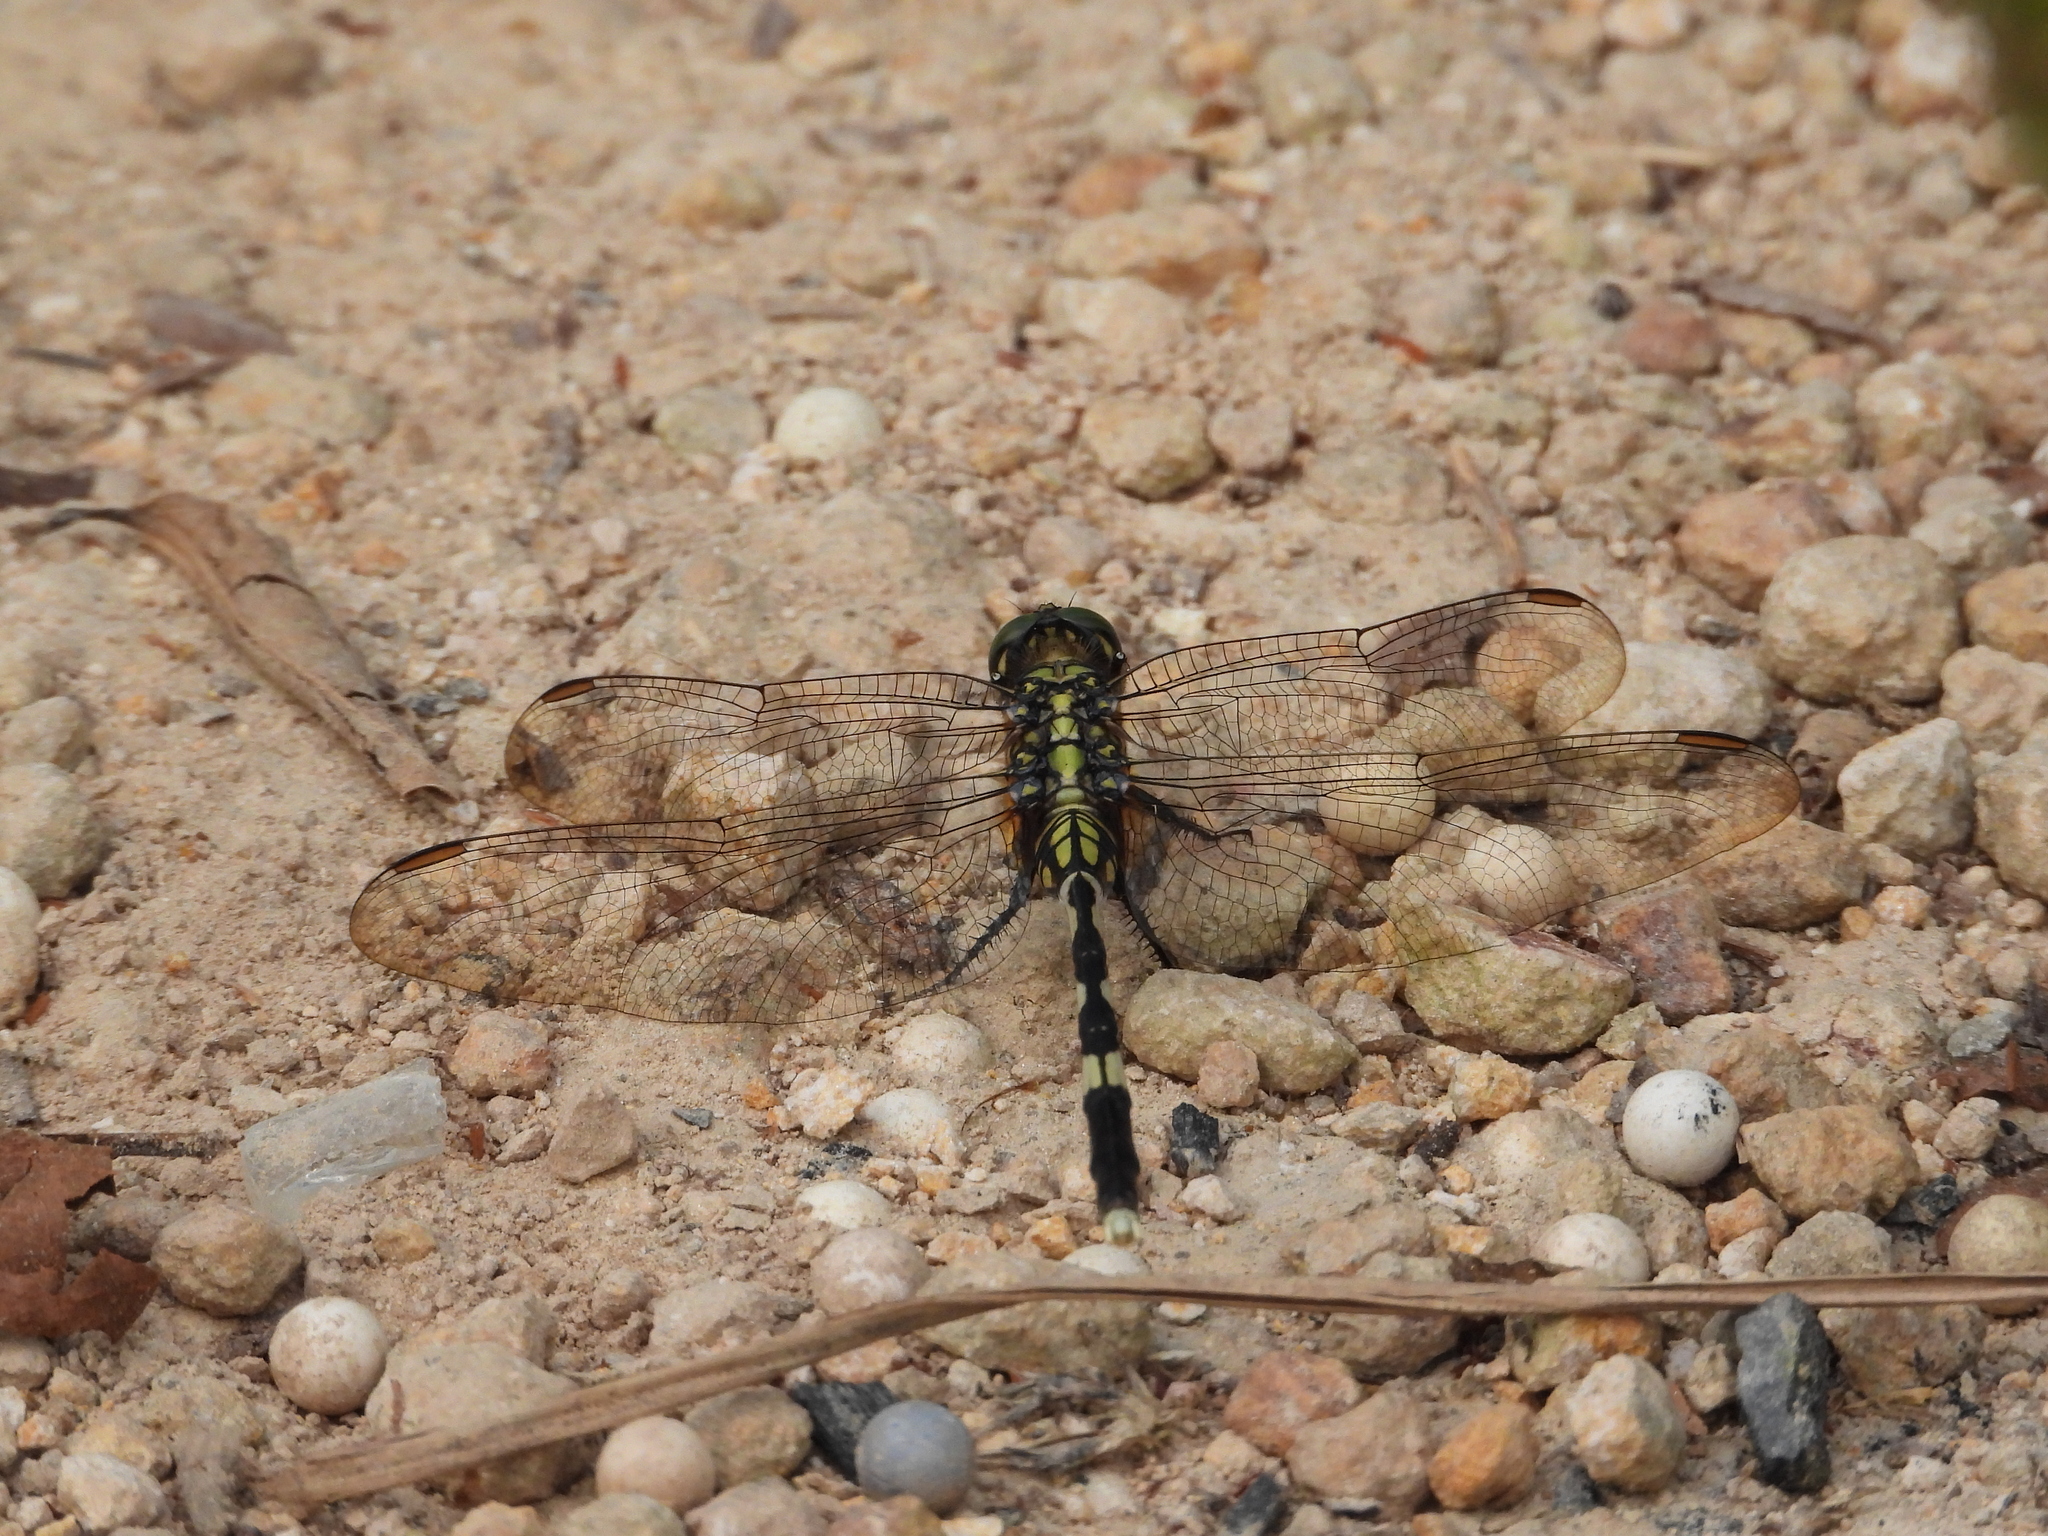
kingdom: Animalia
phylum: Arthropoda
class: Insecta
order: Odonata
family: Libellulidae
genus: Orthetrum
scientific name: Orthetrum sabina
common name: Slender skimmer
